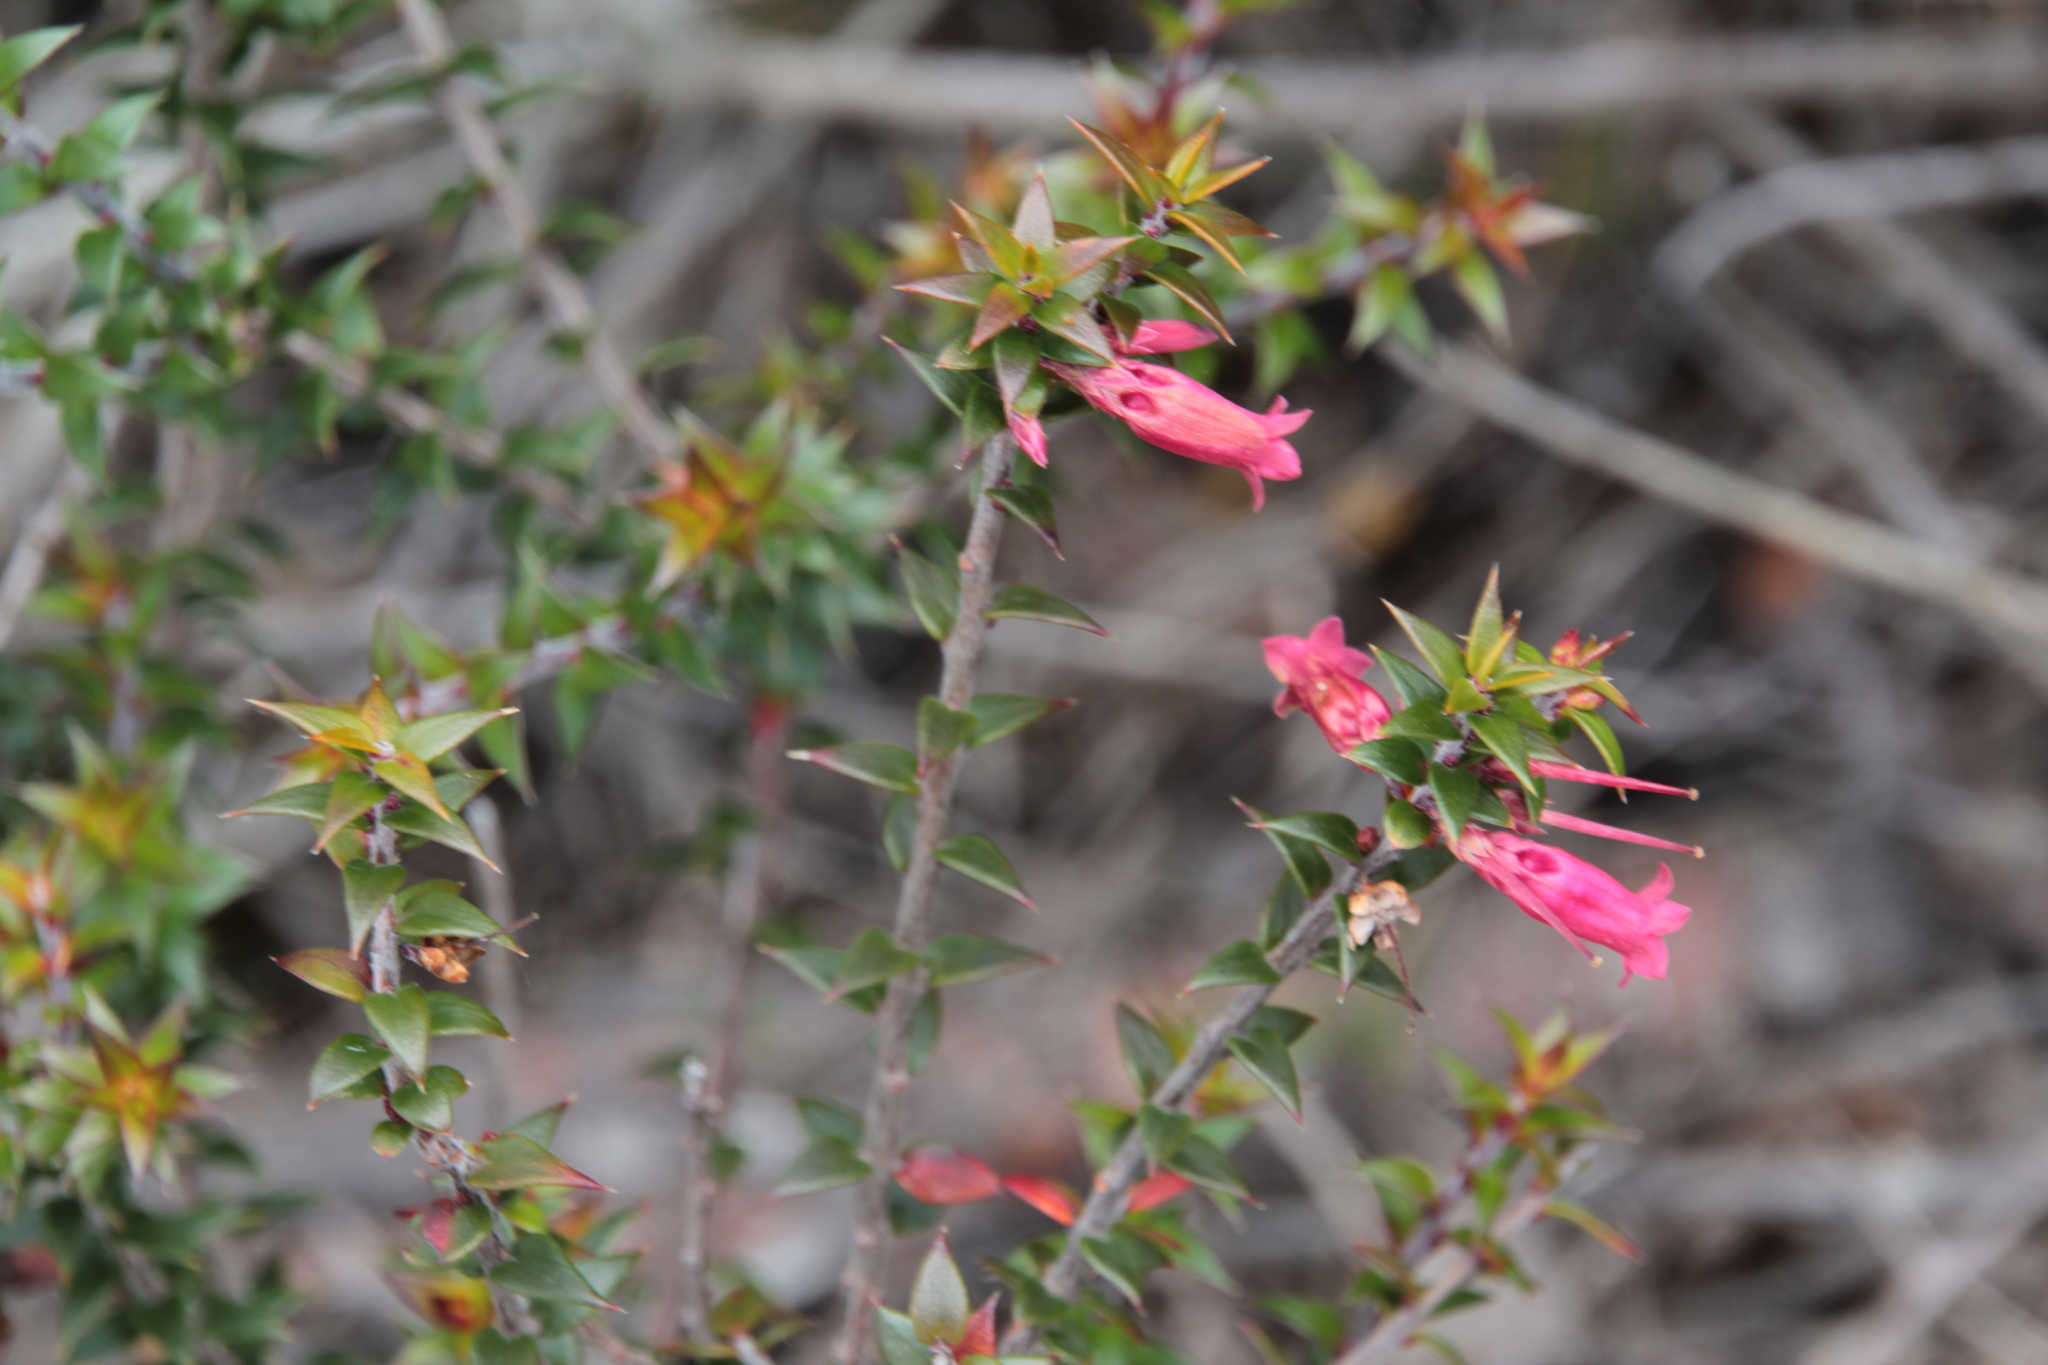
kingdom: Plantae
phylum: Tracheophyta
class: Magnoliopsida
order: Ericales
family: Ericaceae
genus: Epacris
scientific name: Epacris impressa
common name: Common-heath
